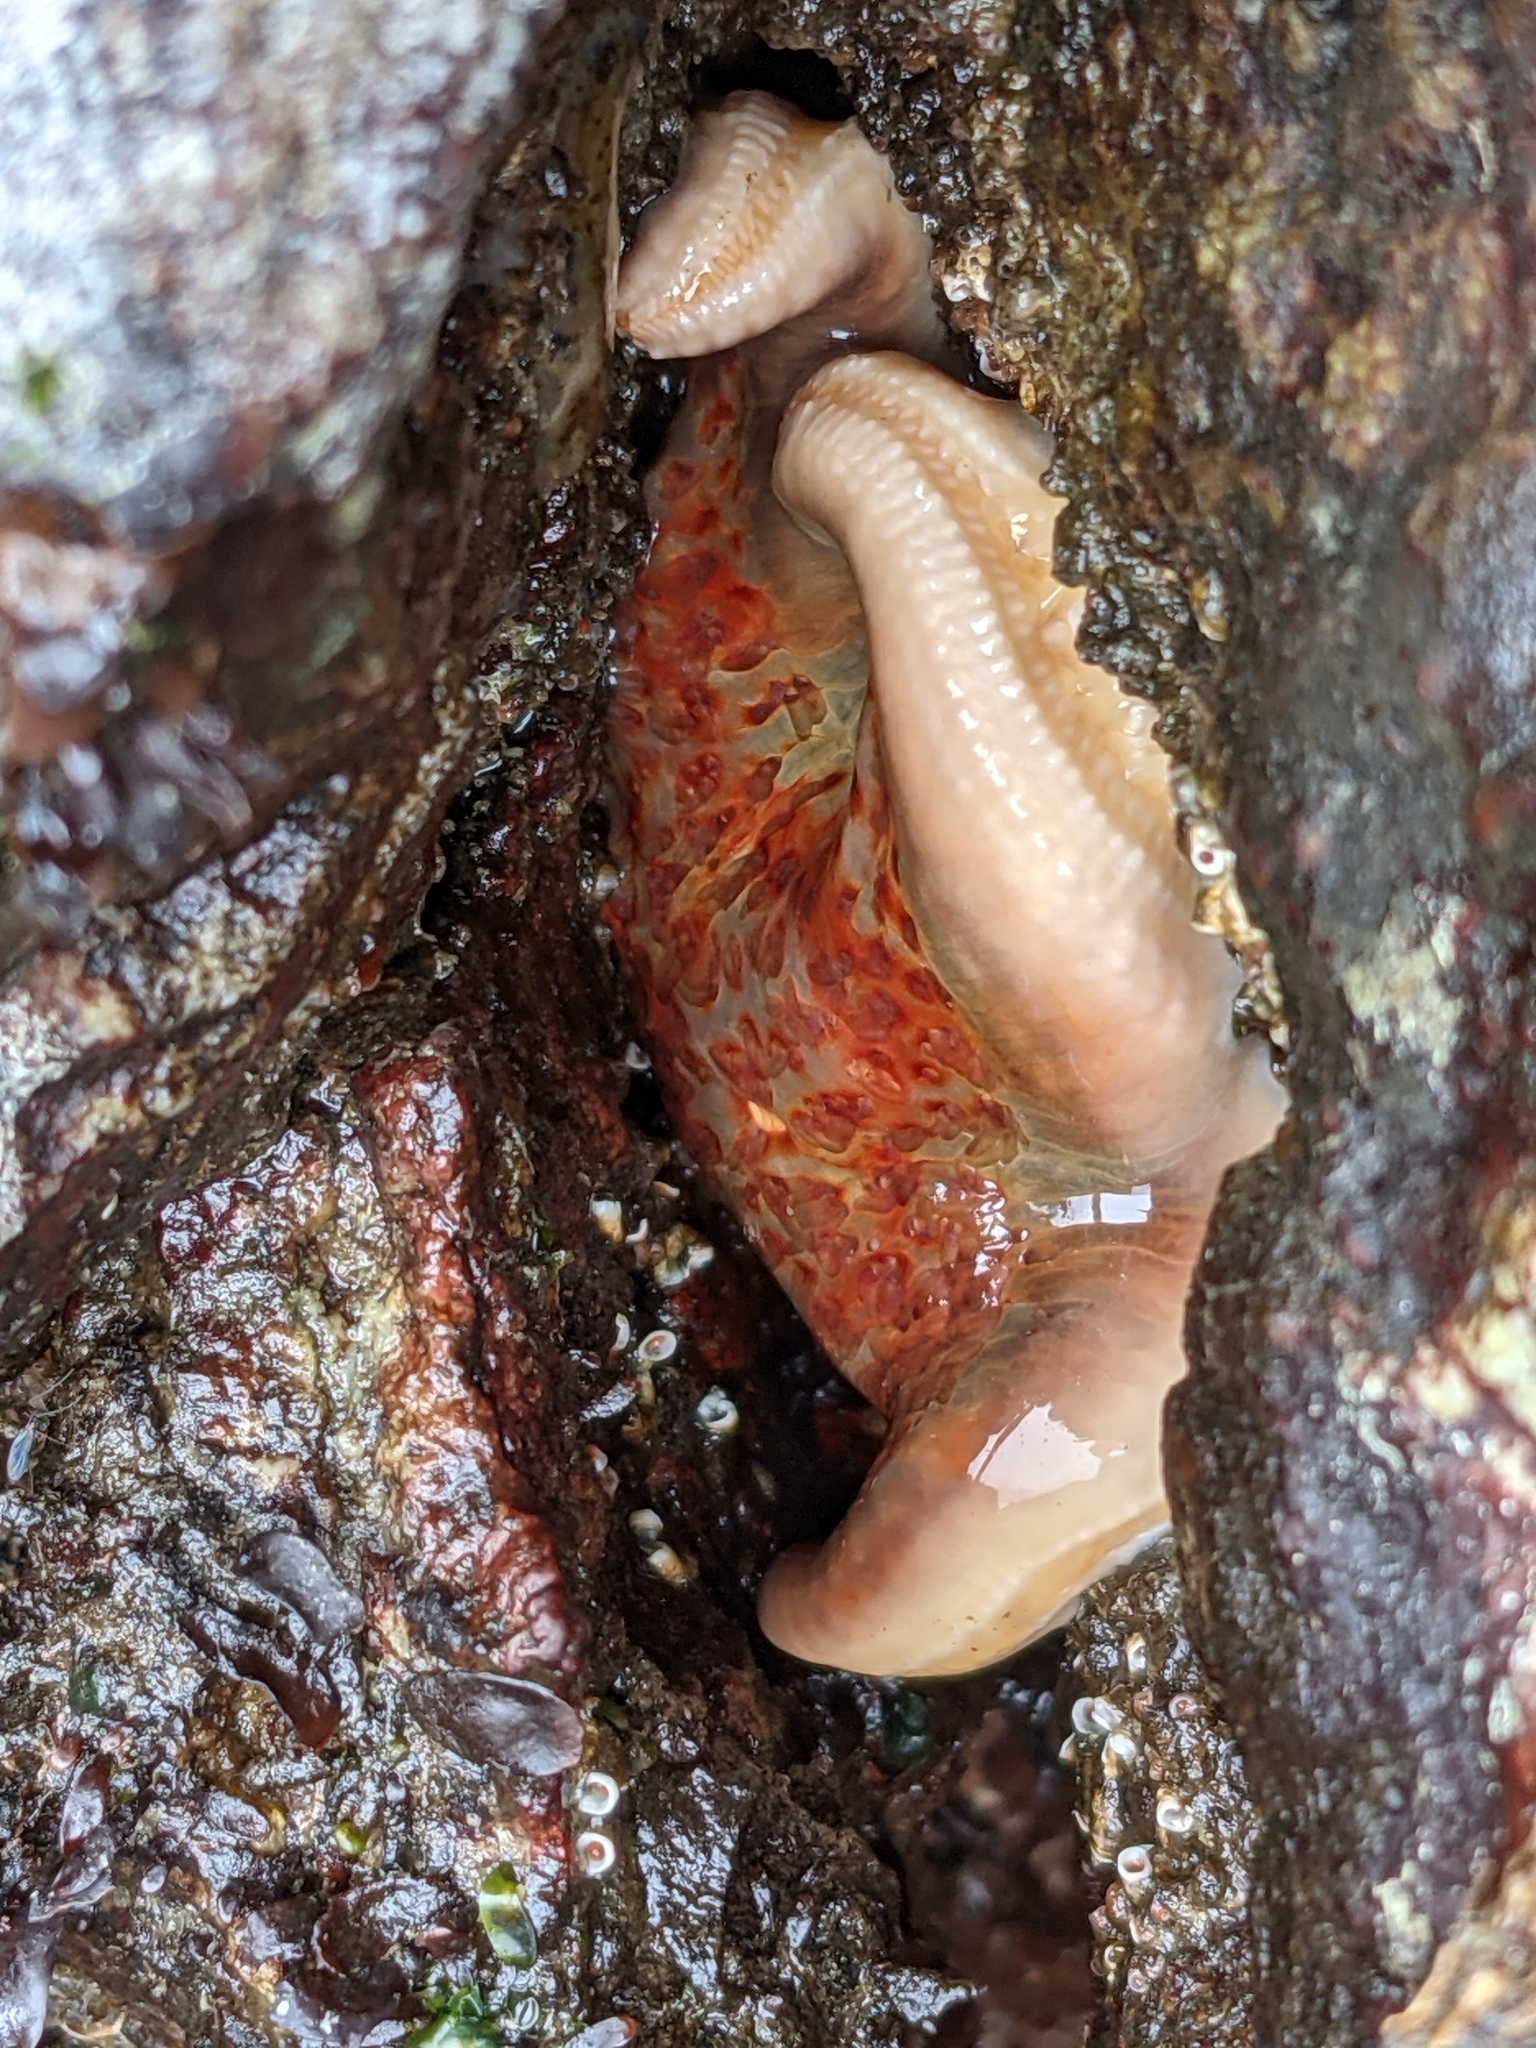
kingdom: Animalia
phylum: Echinodermata
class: Asteroidea
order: Valvatida
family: Asteropseidae
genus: Dermasterias
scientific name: Dermasterias imbricata
